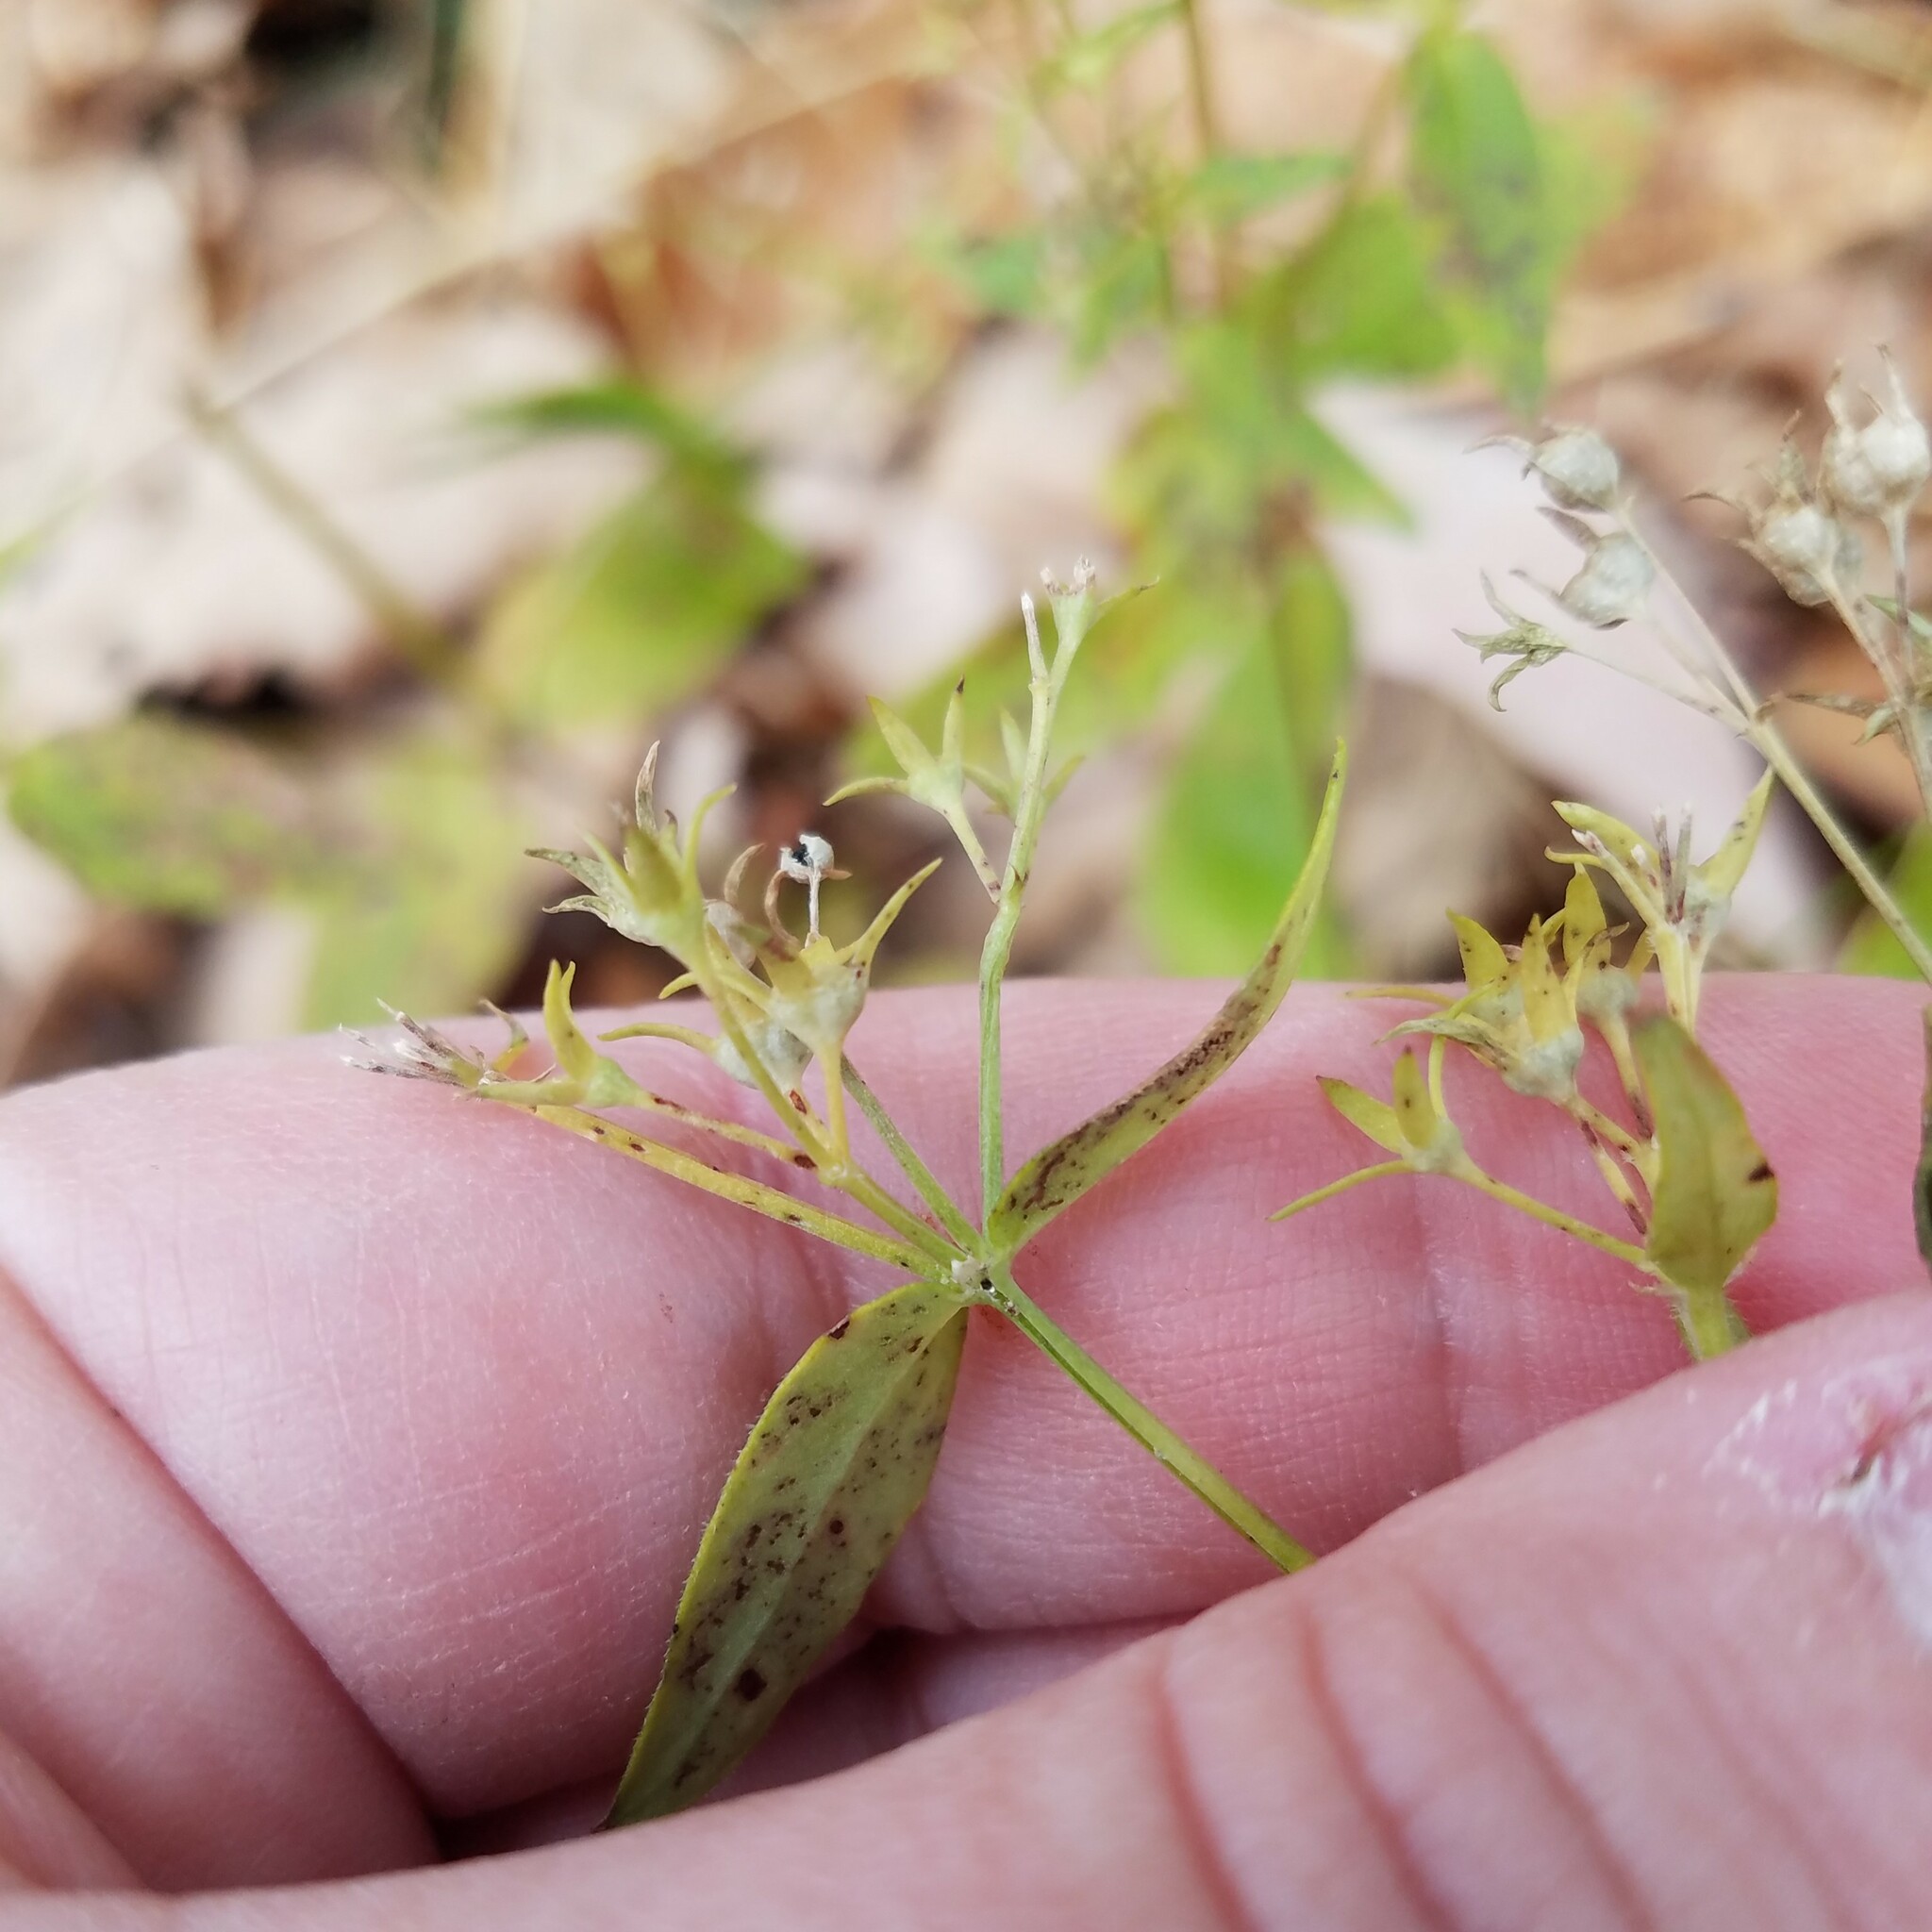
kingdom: Plantae
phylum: Tracheophyta
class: Magnoliopsida
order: Gentianales
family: Rubiaceae
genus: Houstonia
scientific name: Houstonia purpurea
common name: Summer bluet
